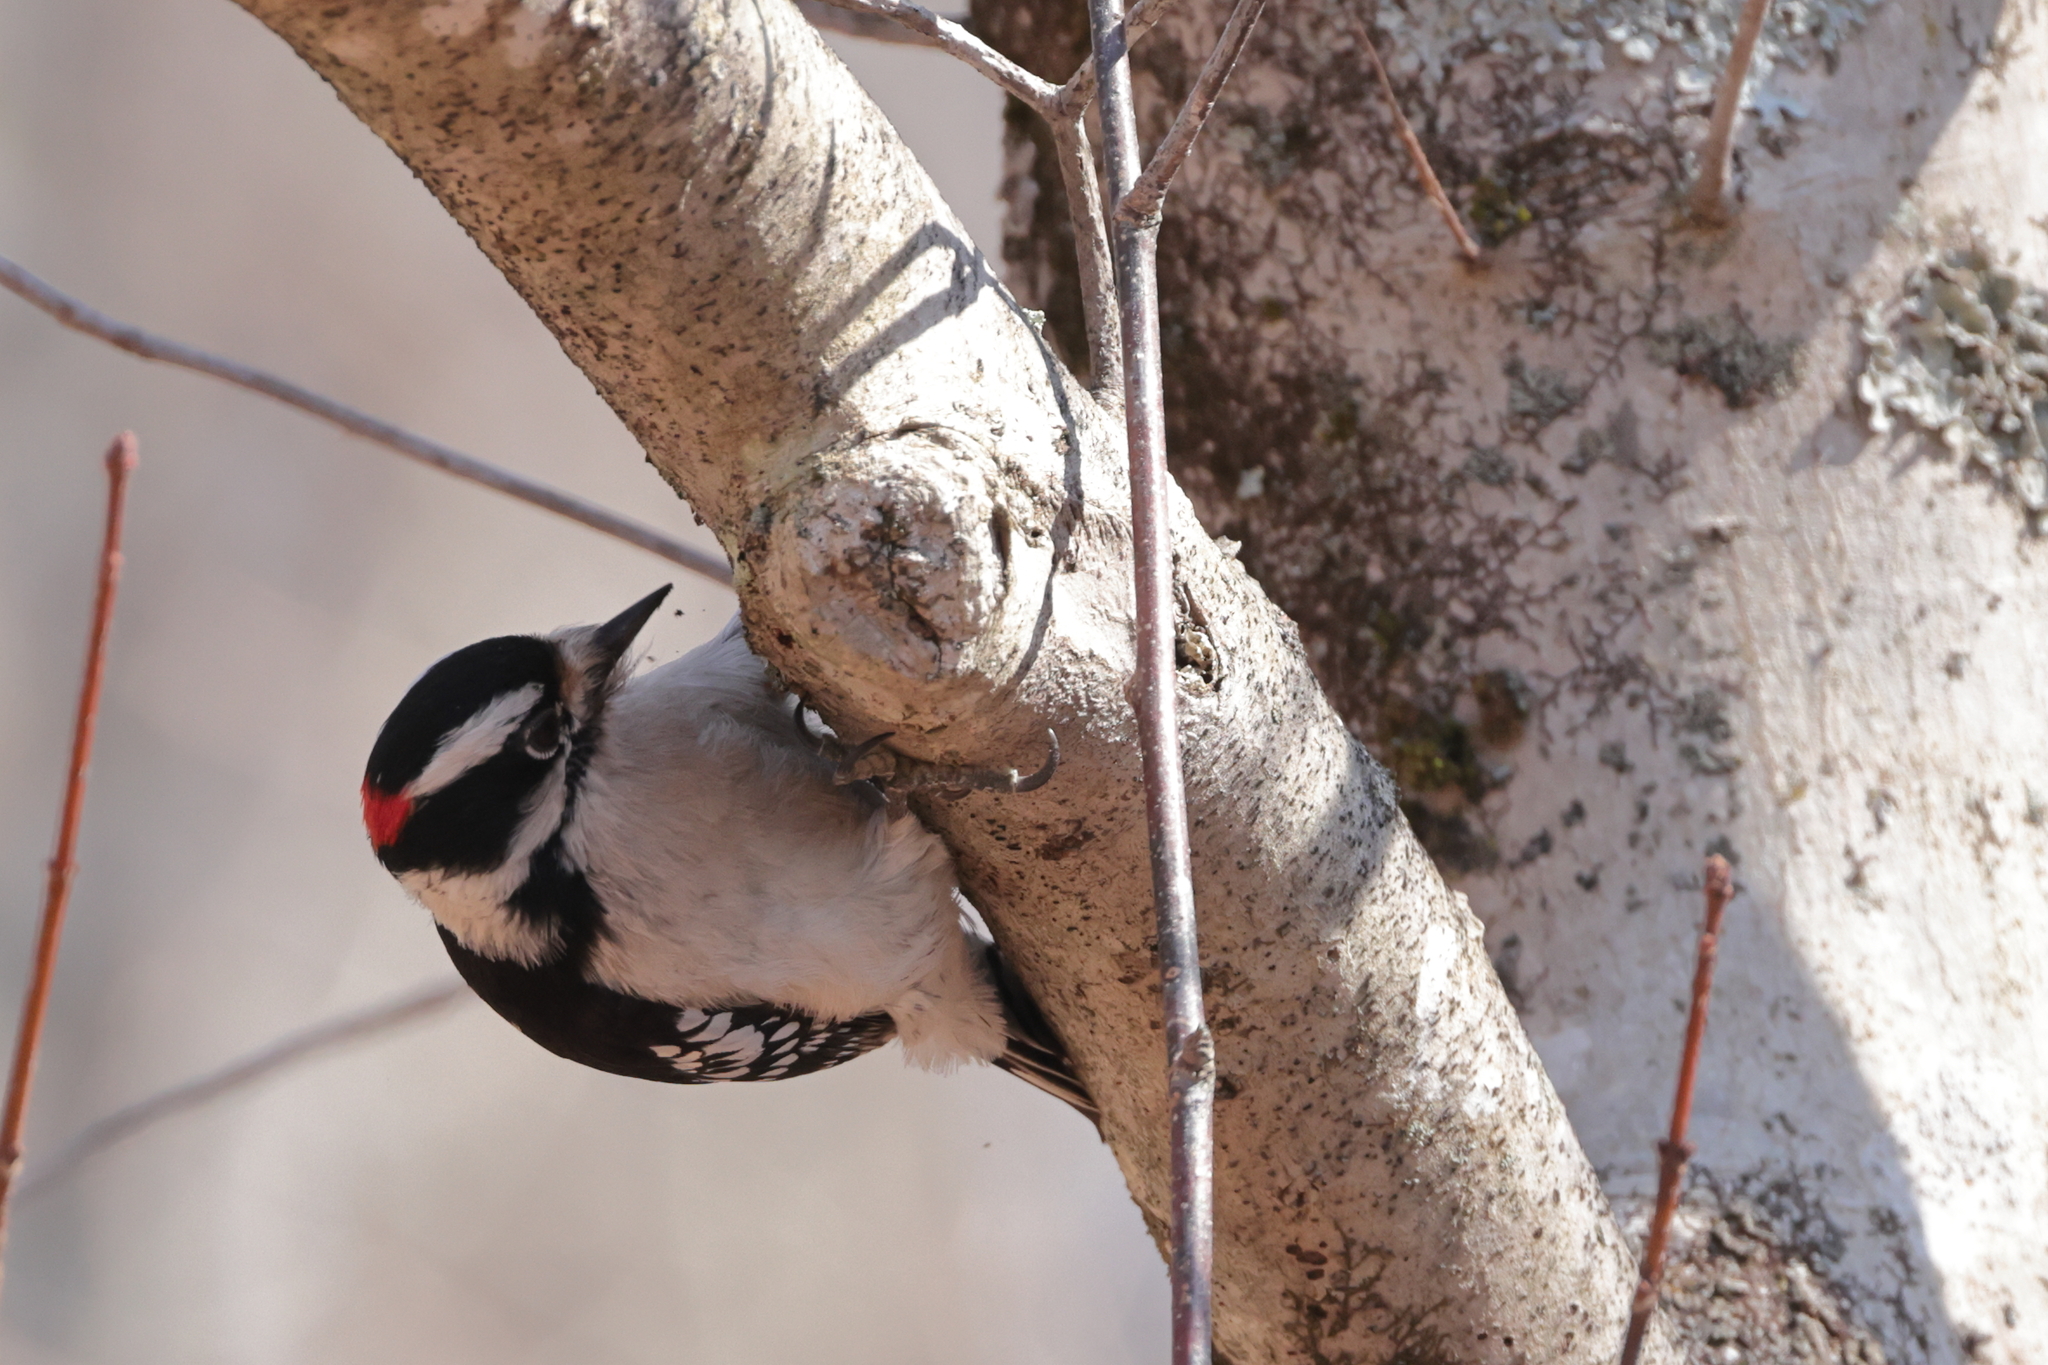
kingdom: Animalia
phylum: Chordata
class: Aves
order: Piciformes
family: Picidae
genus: Dryobates
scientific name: Dryobates pubescens
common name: Downy woodpecker
